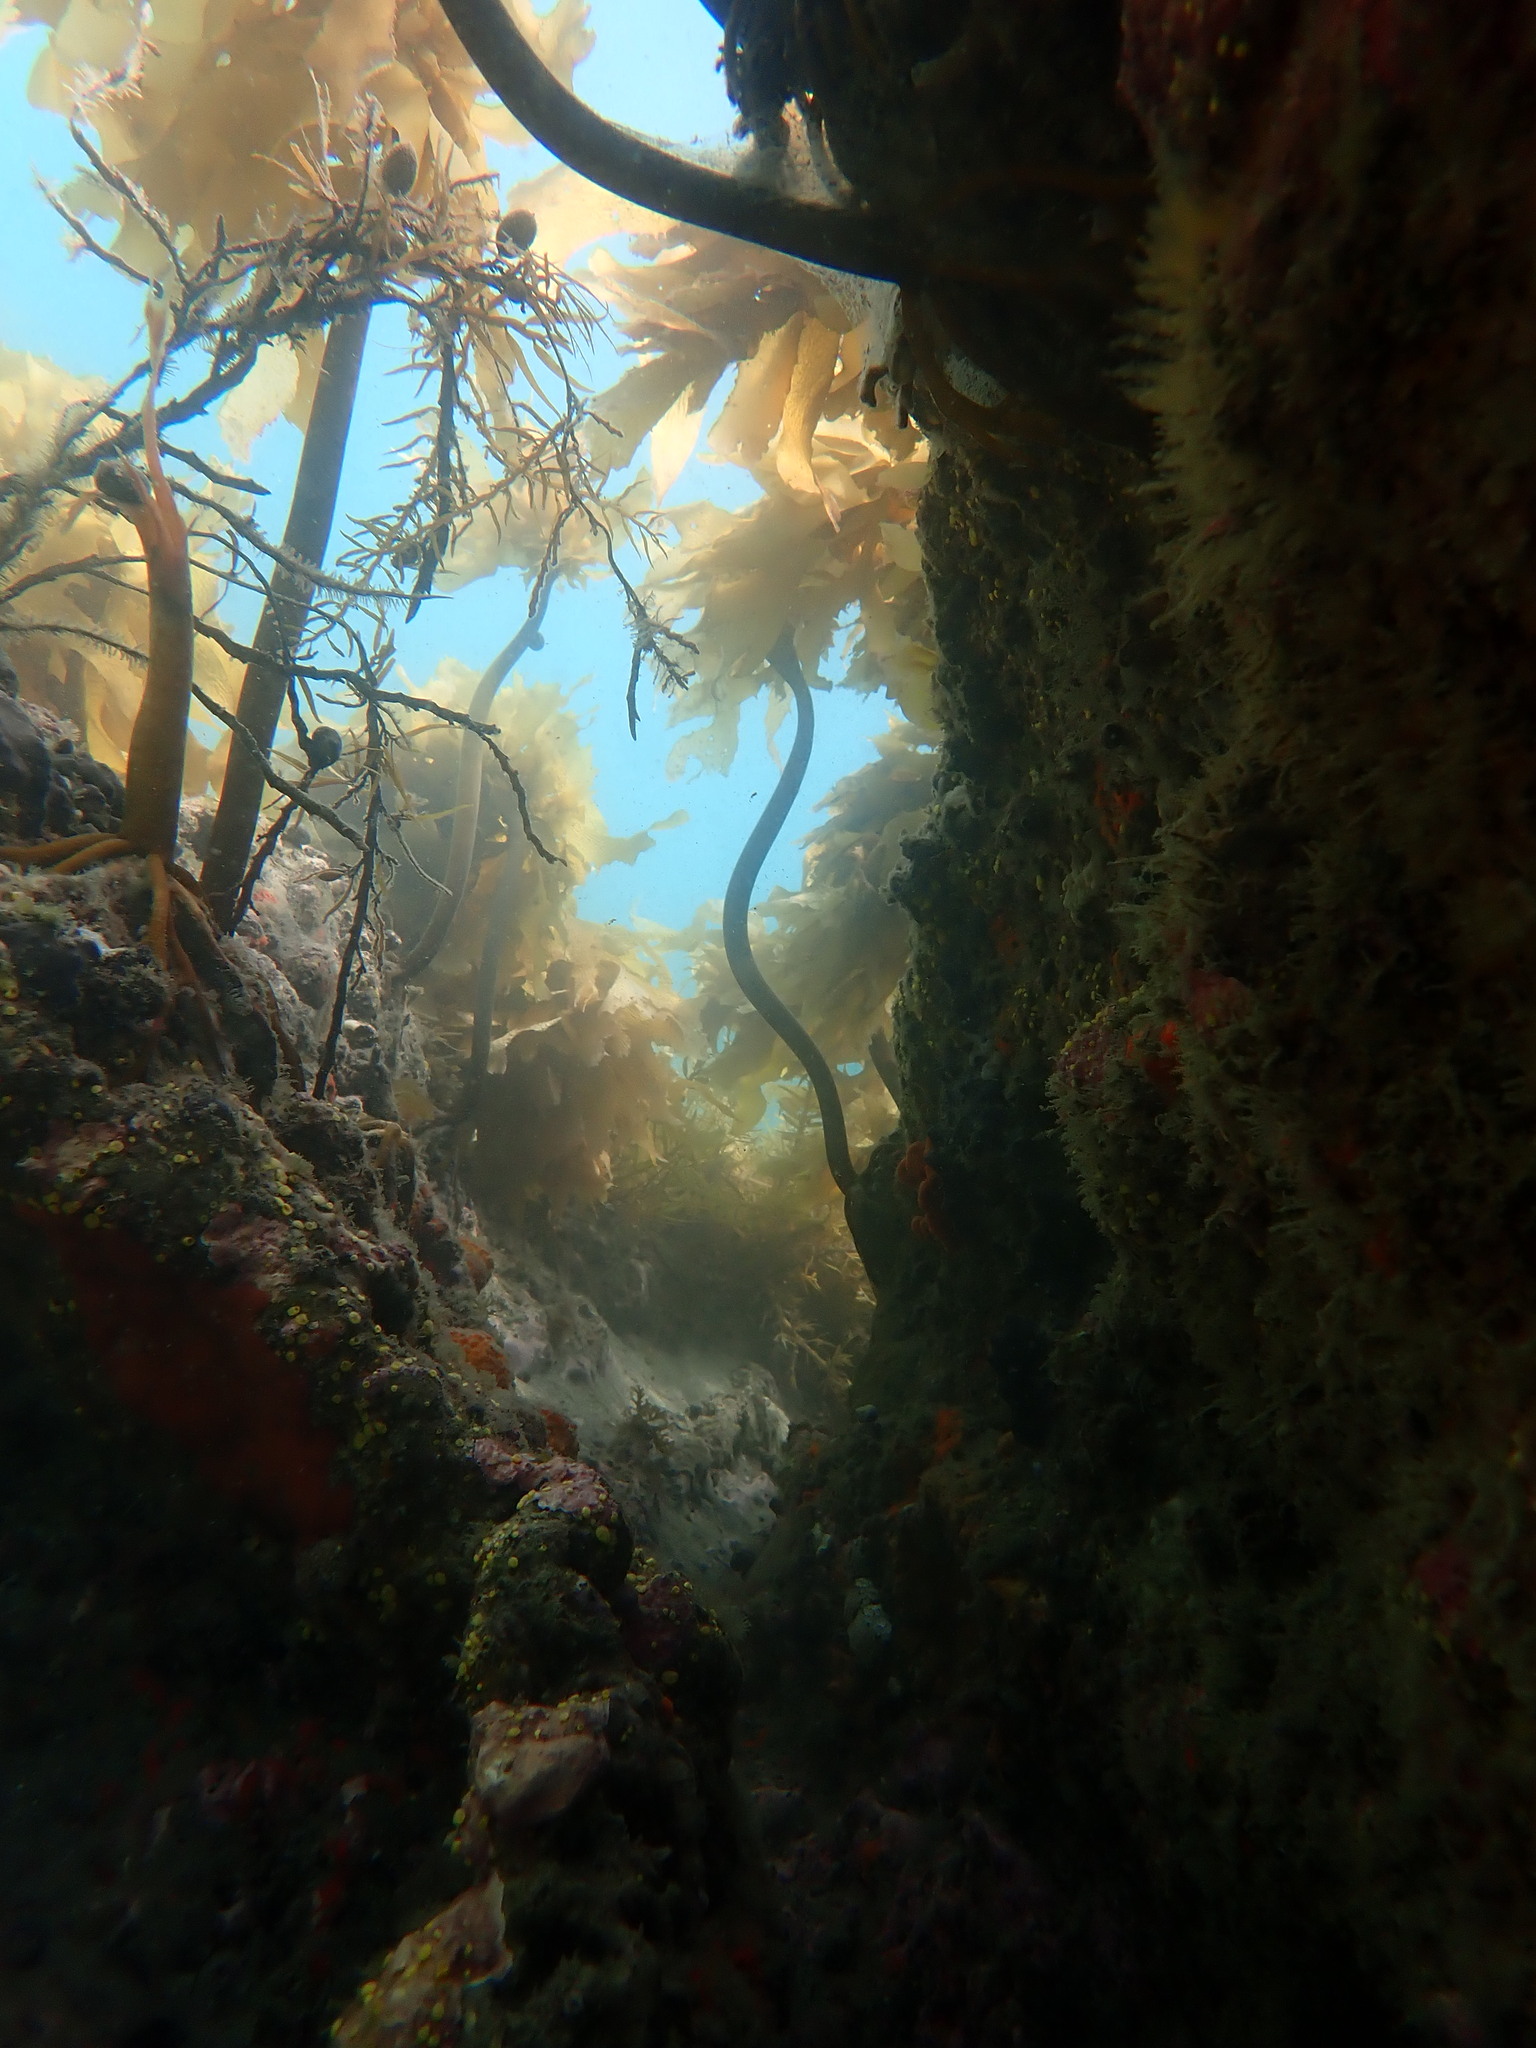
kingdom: Chromista
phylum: Ochrophyta
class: Phaeophyceae
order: Laminariales
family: Lessoniaceae
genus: Ecklonia
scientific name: Ecklonia radiata
